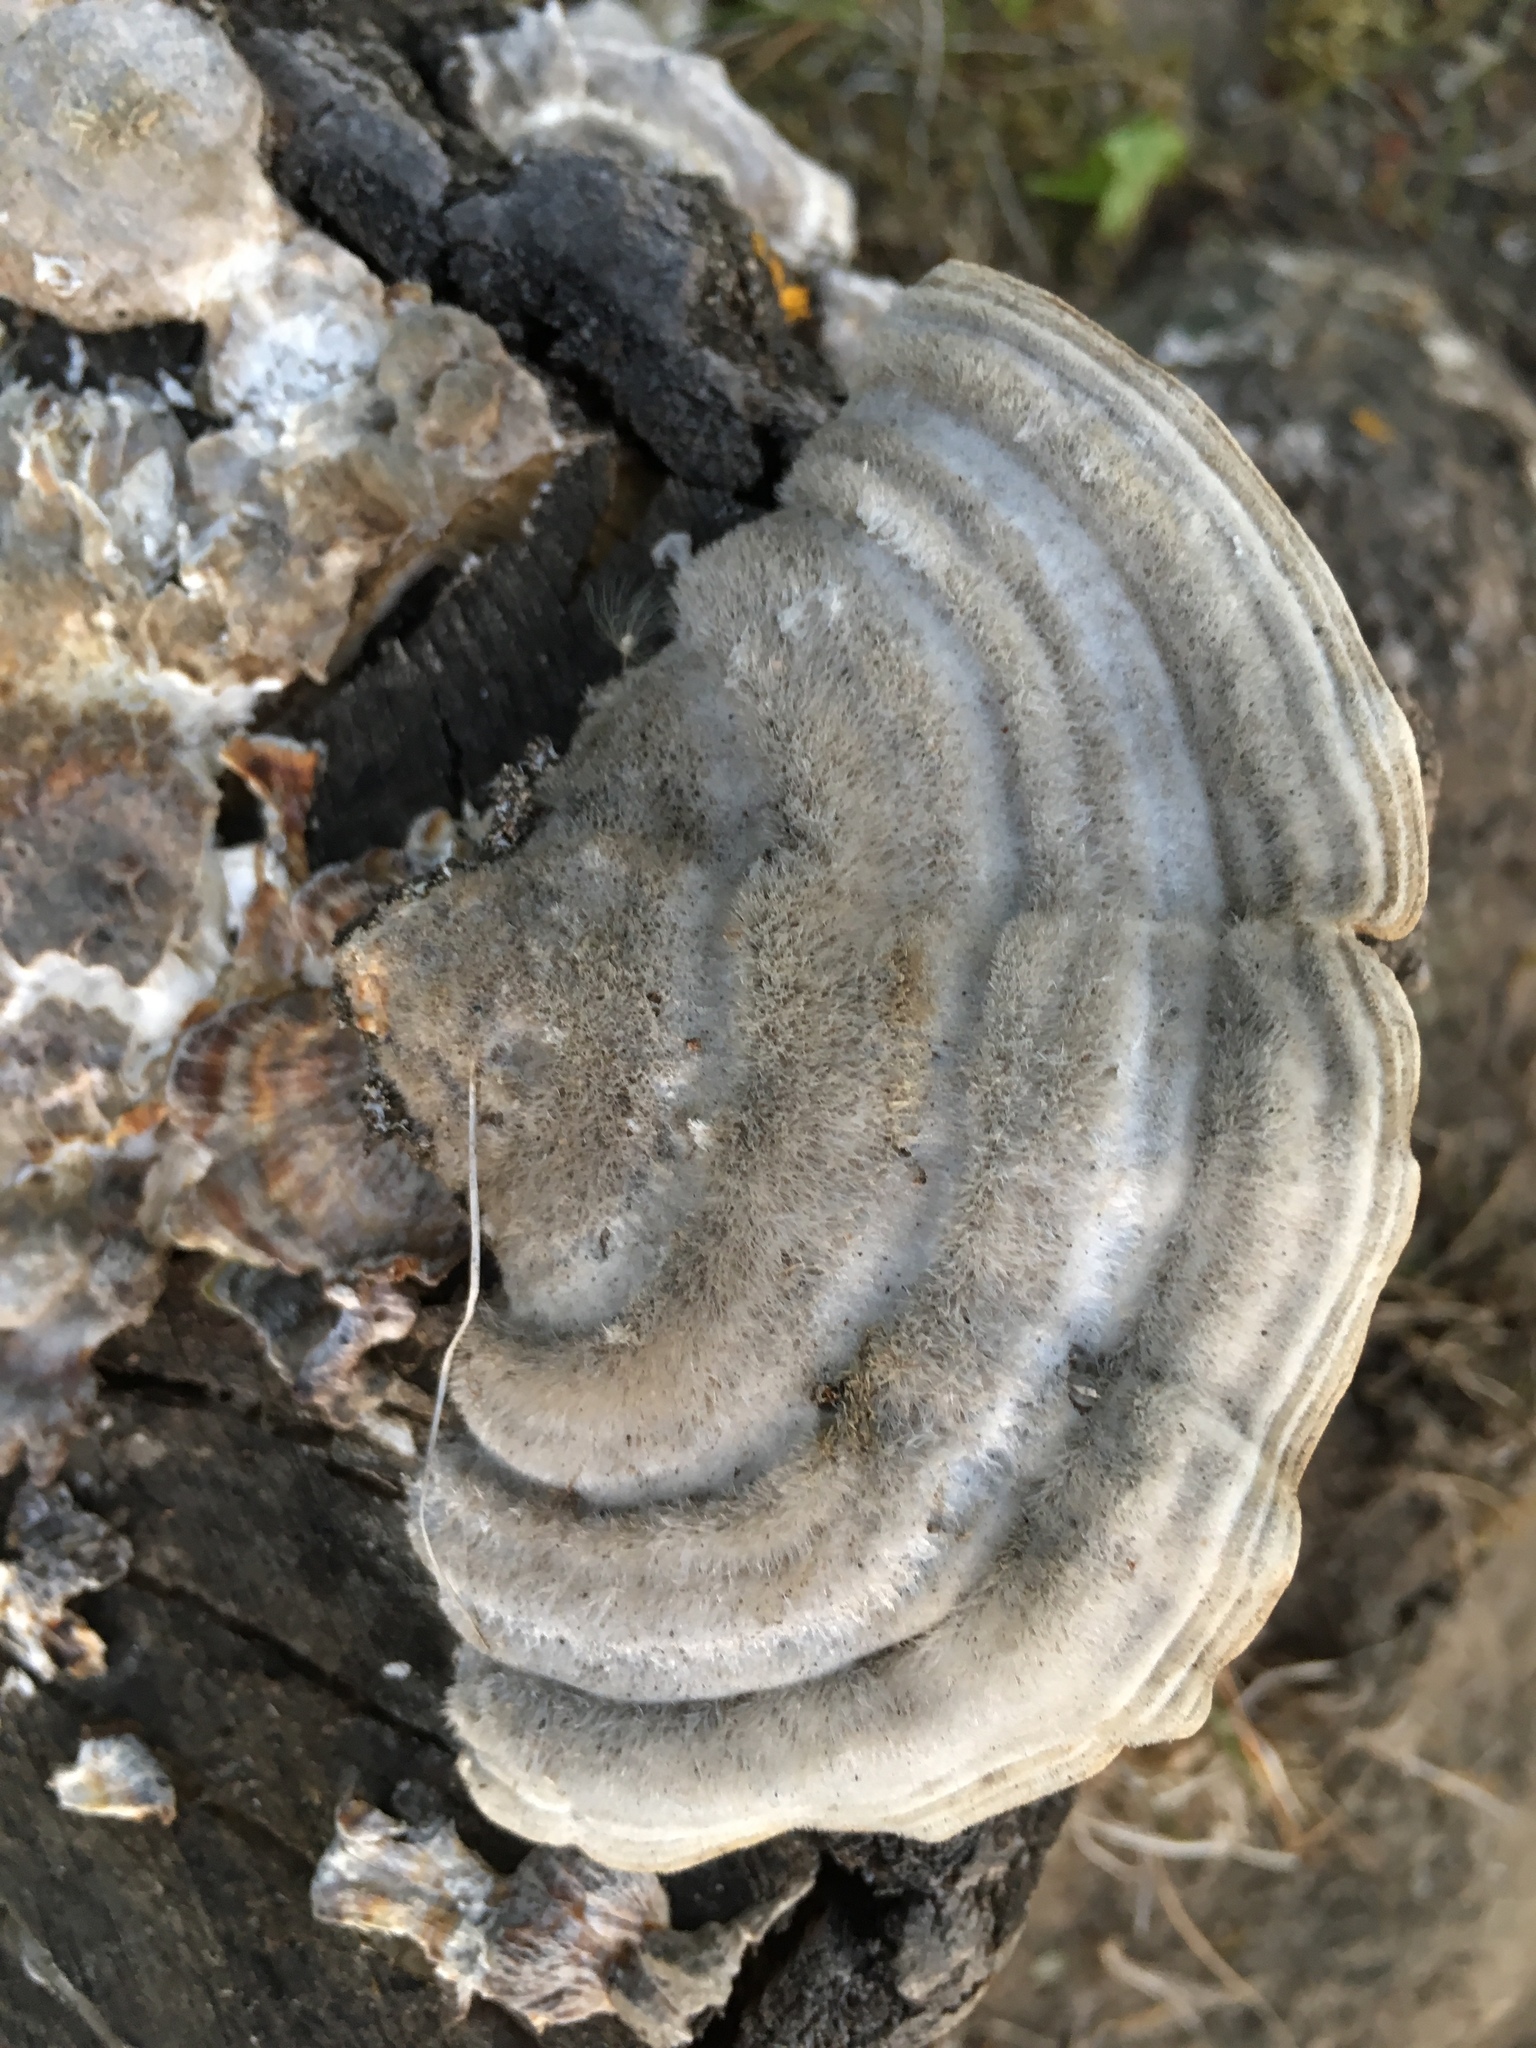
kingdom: Fungi
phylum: Basidiomycota
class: Agaricomycetes
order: Polyporales
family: Polyporaceae
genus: Trametes
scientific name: Trametes hirsuta
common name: Hairy bracket
